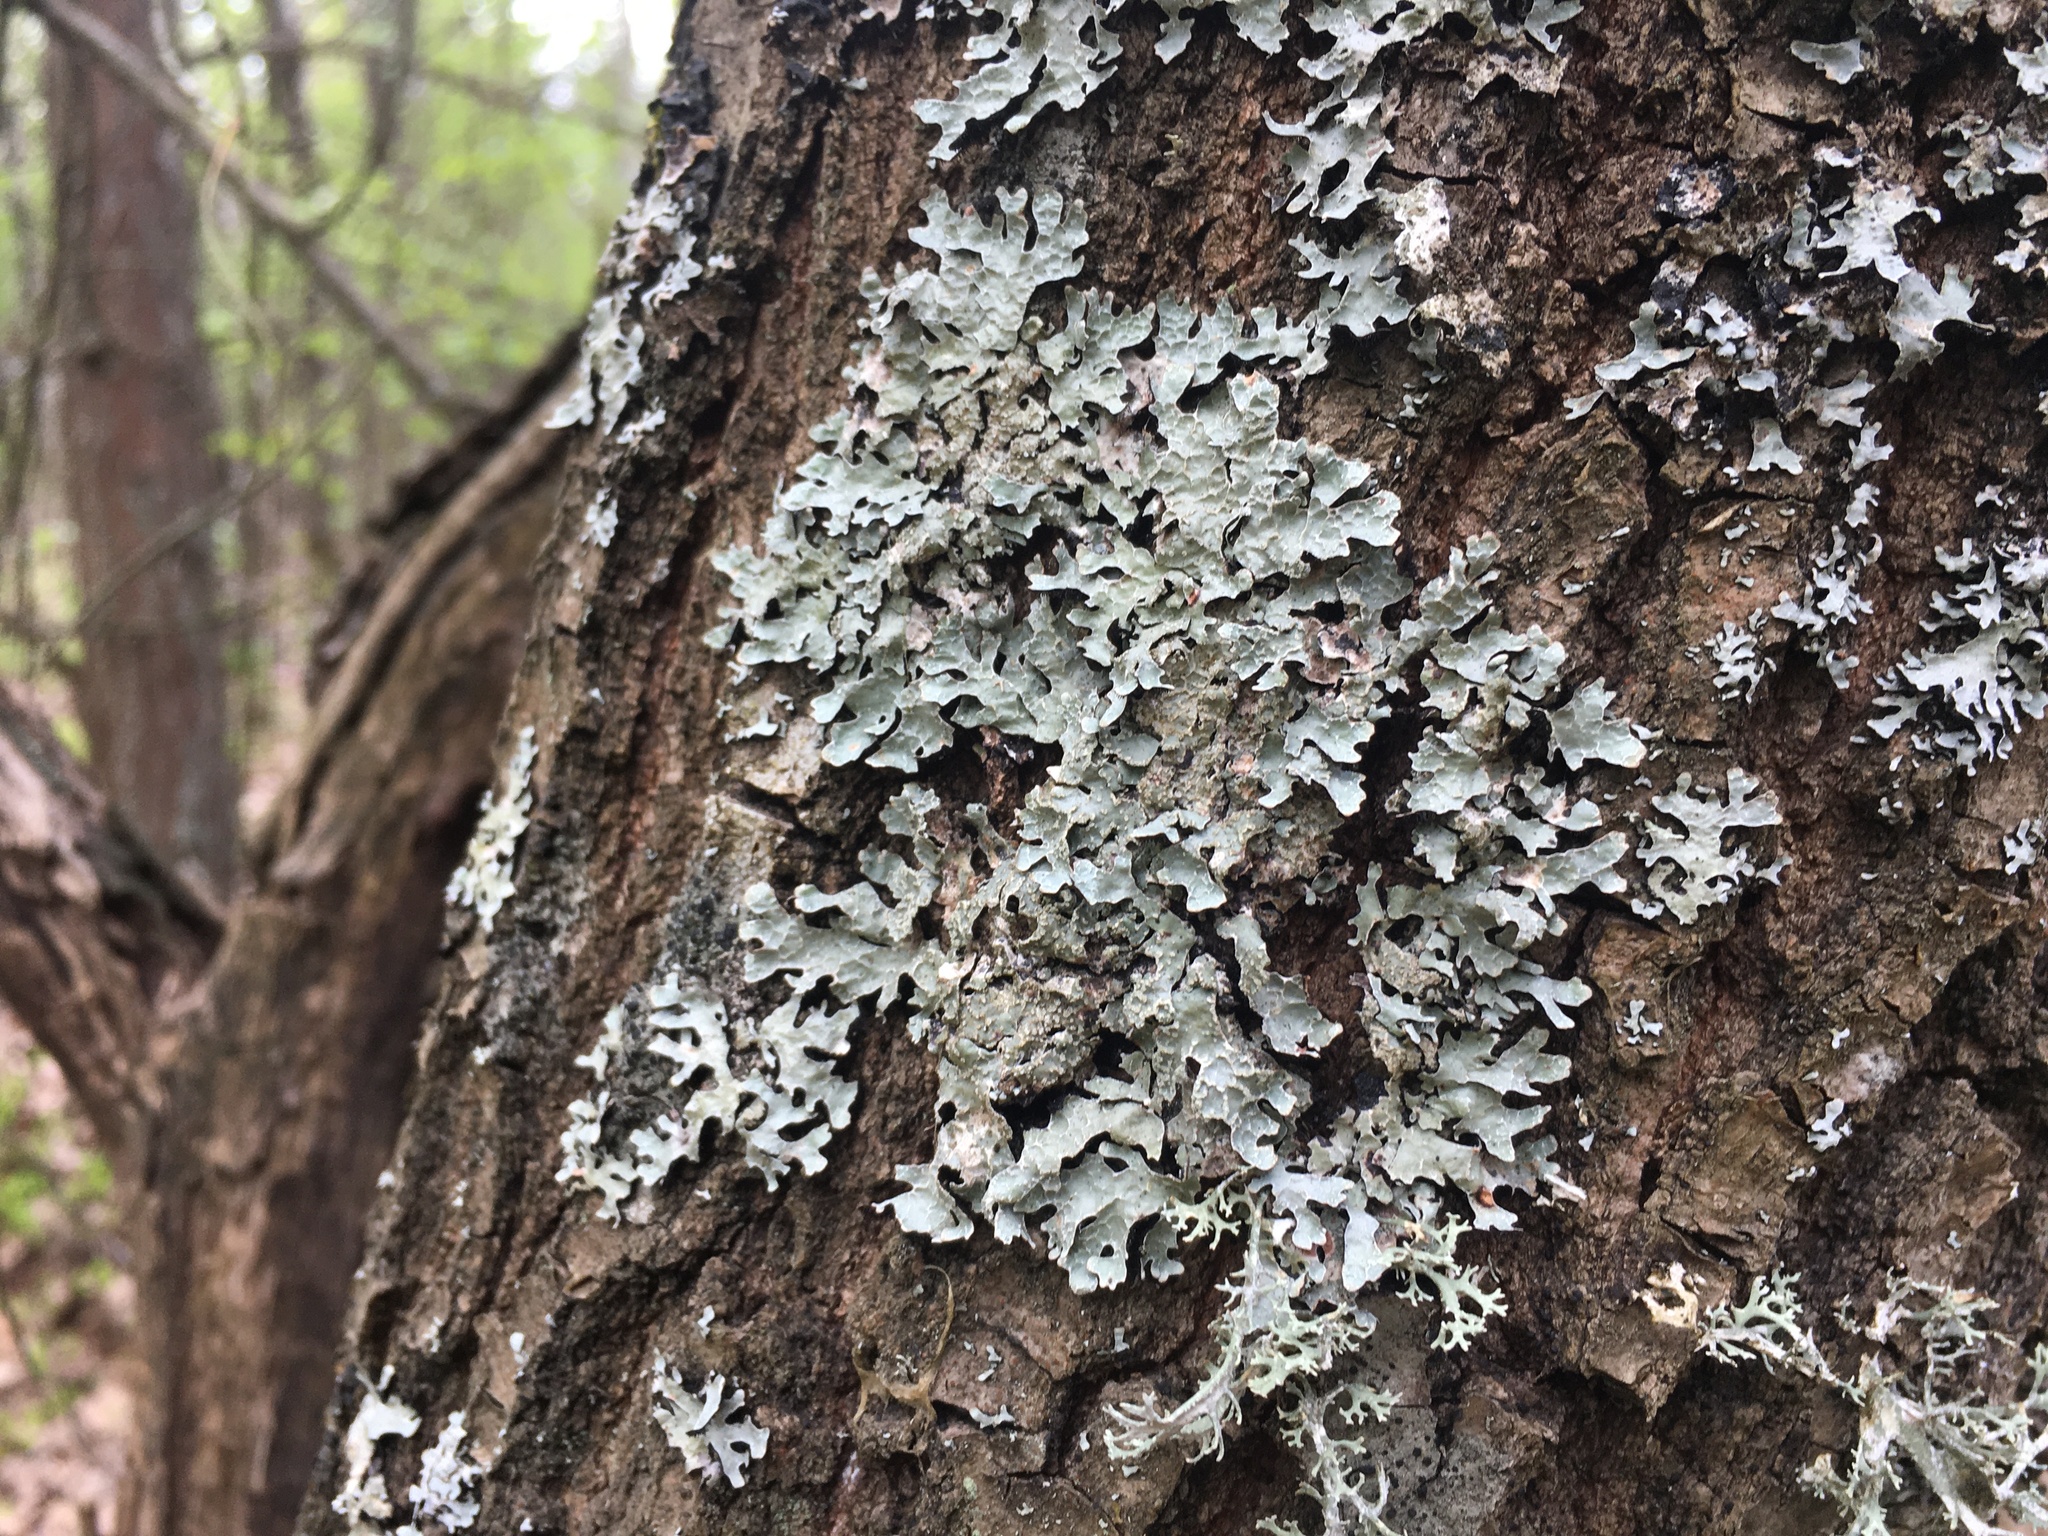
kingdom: Fungi
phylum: Ascomycota
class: Lecanoromycetes
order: Lecanorales
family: Parmeliaceae
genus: Parmelia
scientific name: Parmelia sulcata
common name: Netted shield lichen
